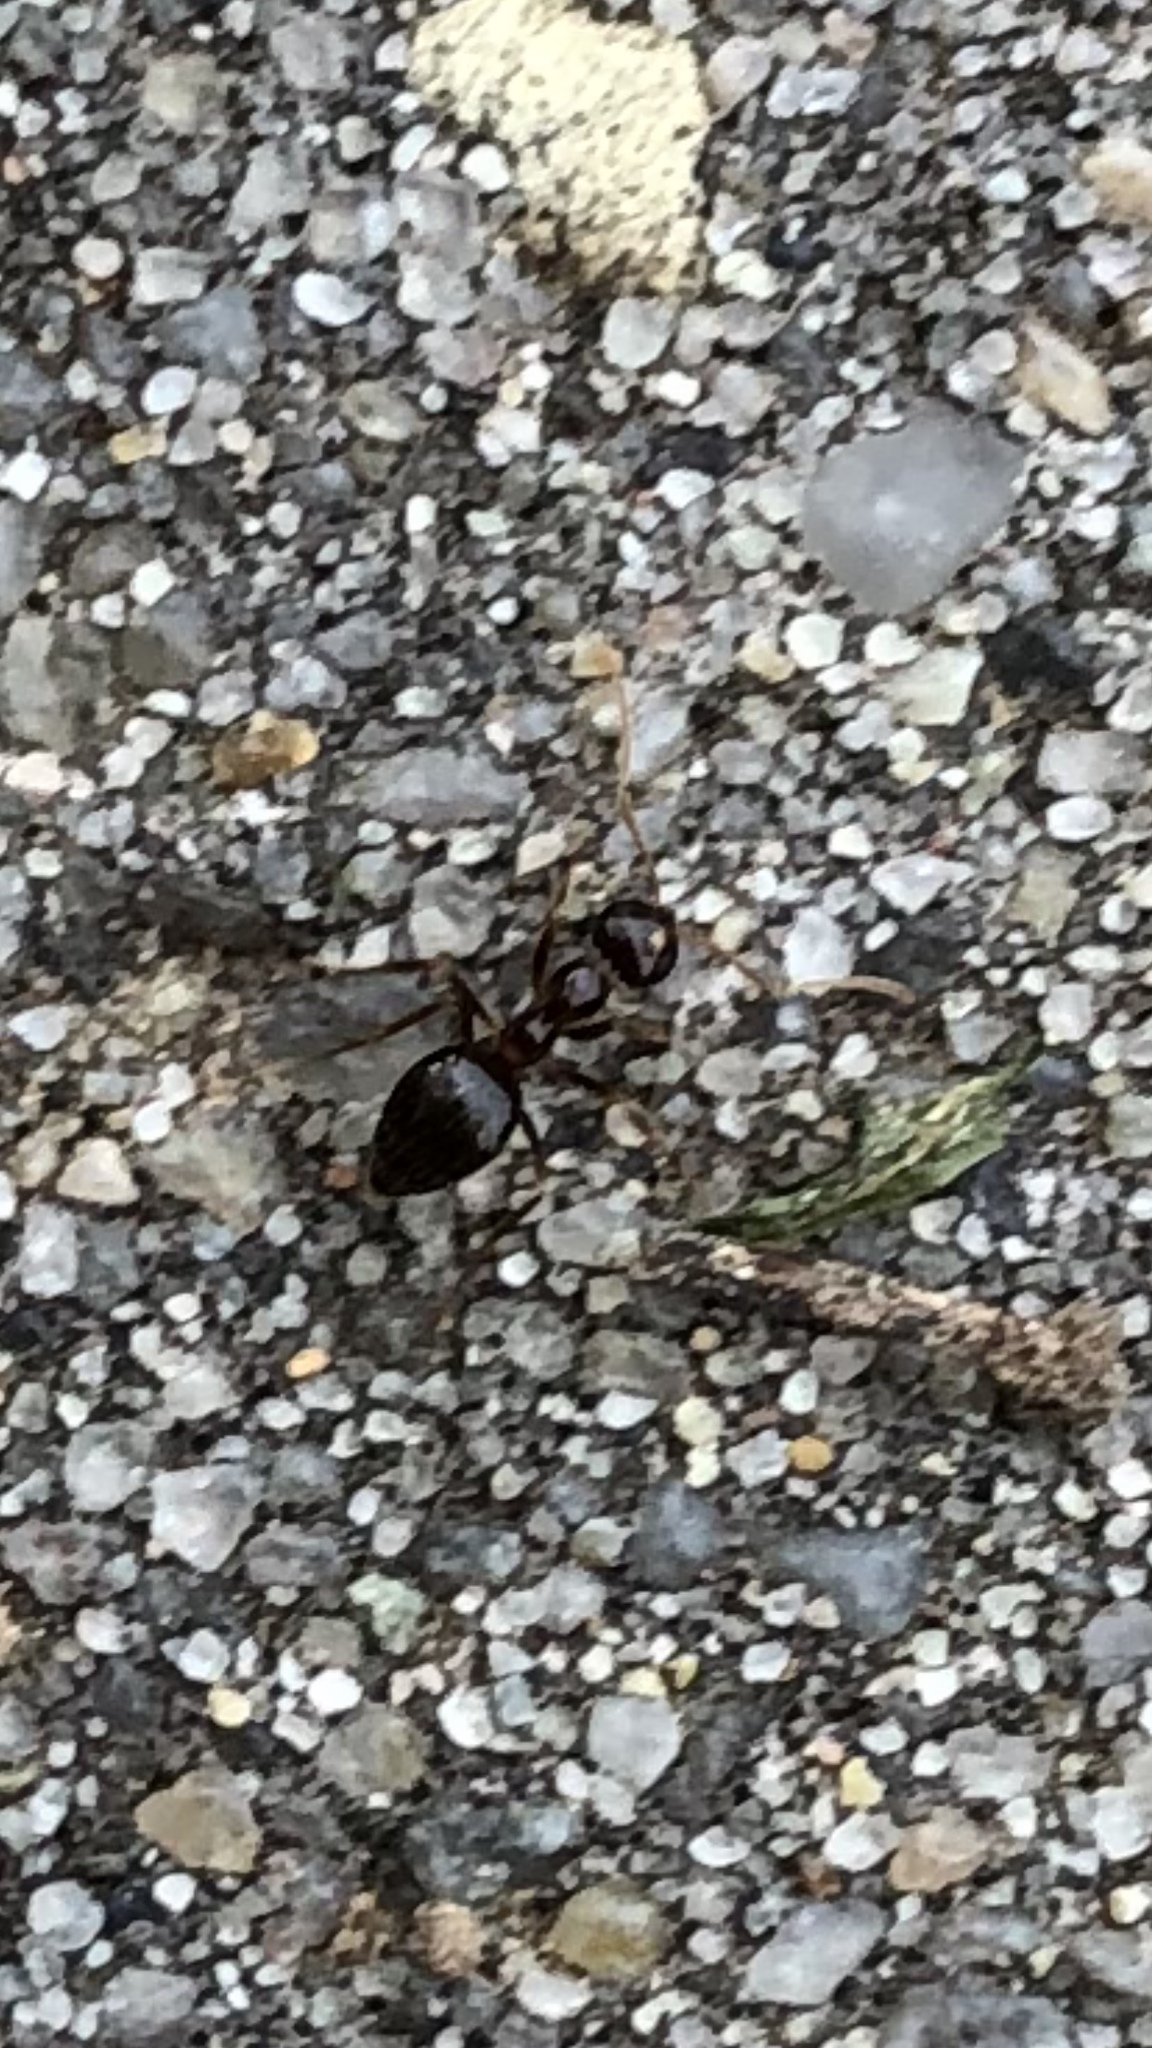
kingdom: Animalia
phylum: Arthropoda
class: Insecta
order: Hymenoptera
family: Formicidae
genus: Prenolepis
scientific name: Prenolepis imparis
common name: Small honey ant
